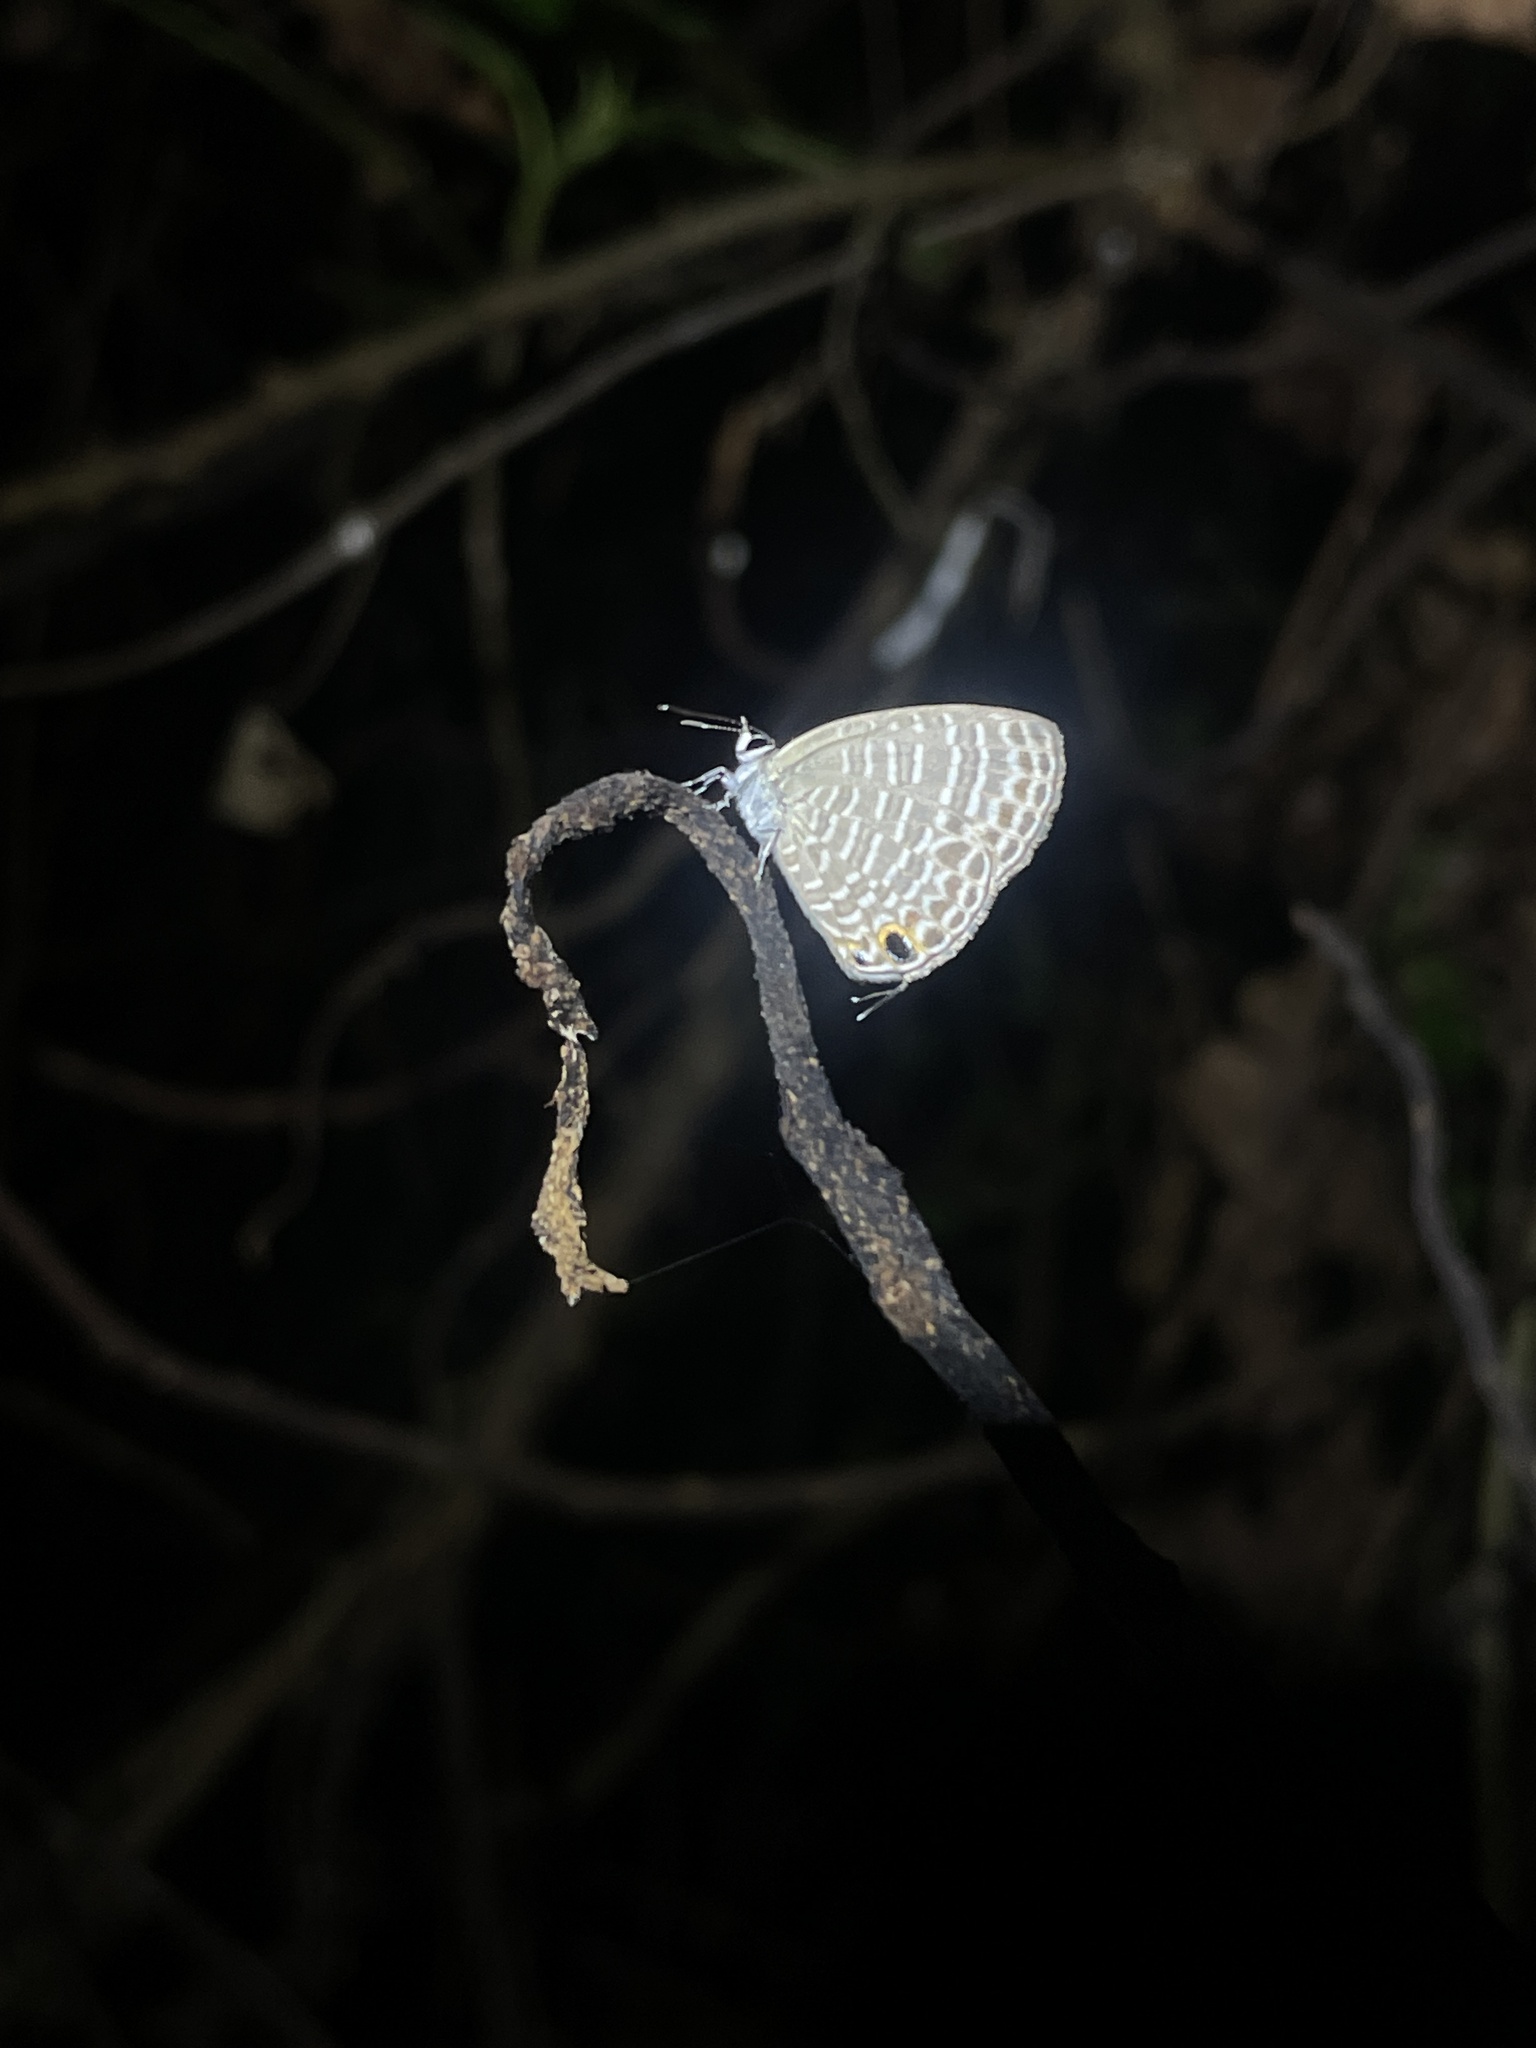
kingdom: Animalia
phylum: Arthropoda
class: Insecta
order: Lepidoptera
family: Lycaenidae
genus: Nacaduba
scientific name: Nacaduba kurava
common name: Transparent 6-line blue
